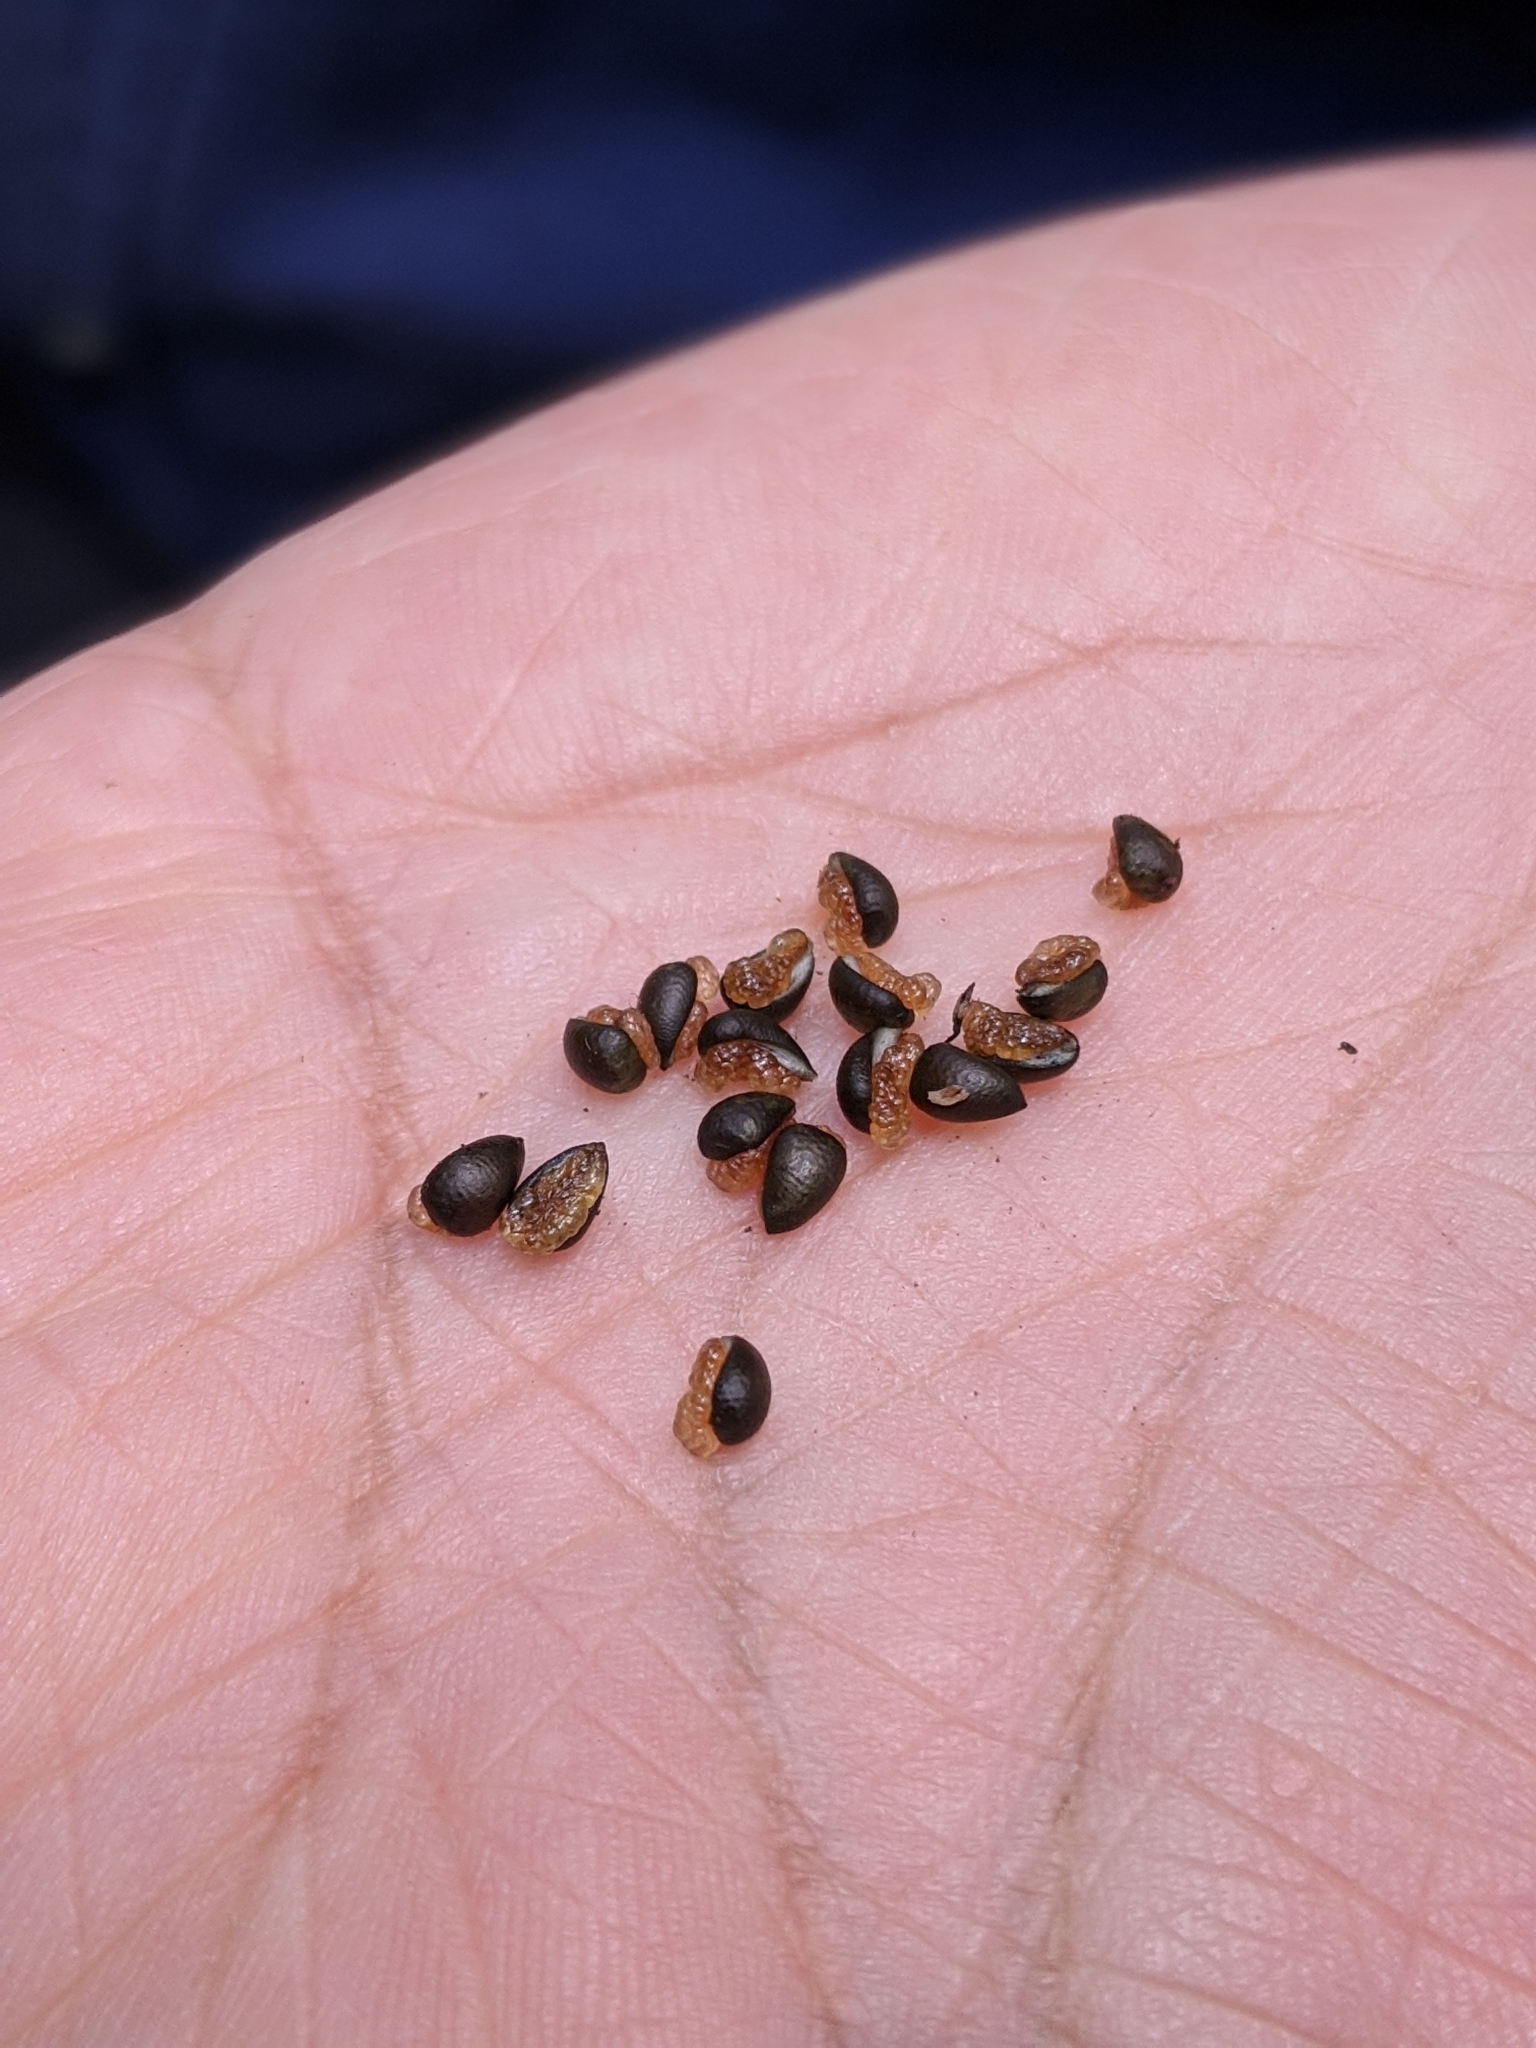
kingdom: Plantae
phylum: Tracheophyta
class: Magnoliopsida
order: Piperales
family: Aristolochiaceae
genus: Asarum
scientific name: Asarum caudatum
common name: Wild ginger
